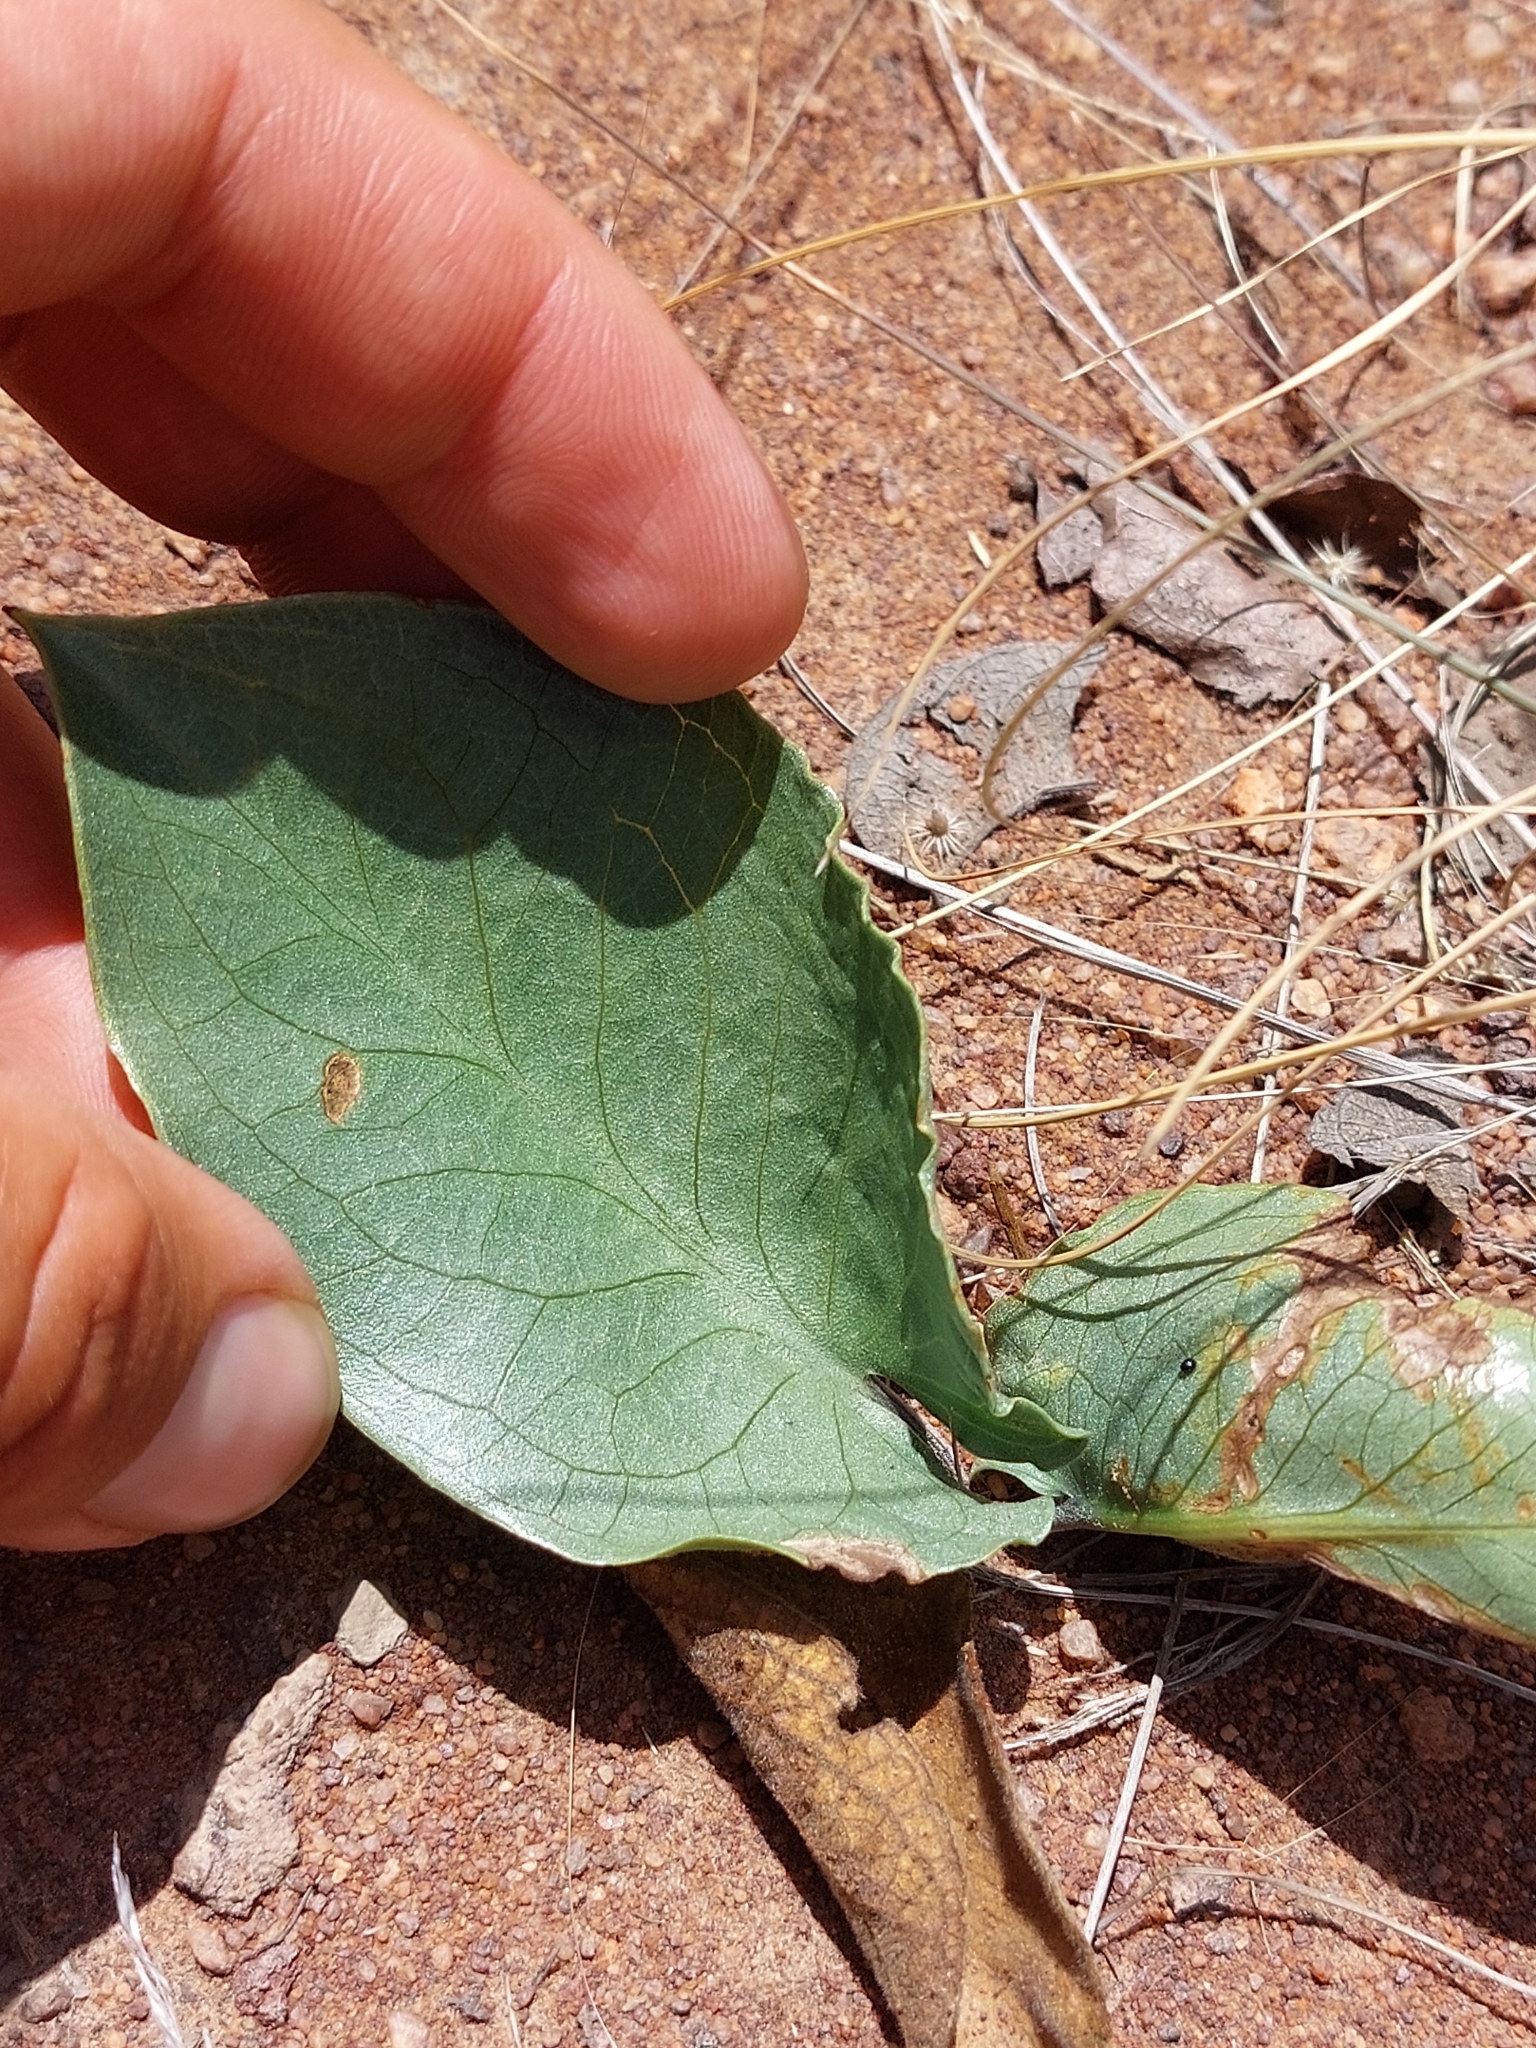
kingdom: Plantae
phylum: Tracheophyta
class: Liliopsida
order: Alismatales
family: Araceae
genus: Stylochaeton
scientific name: Stylochaeton natalensis
